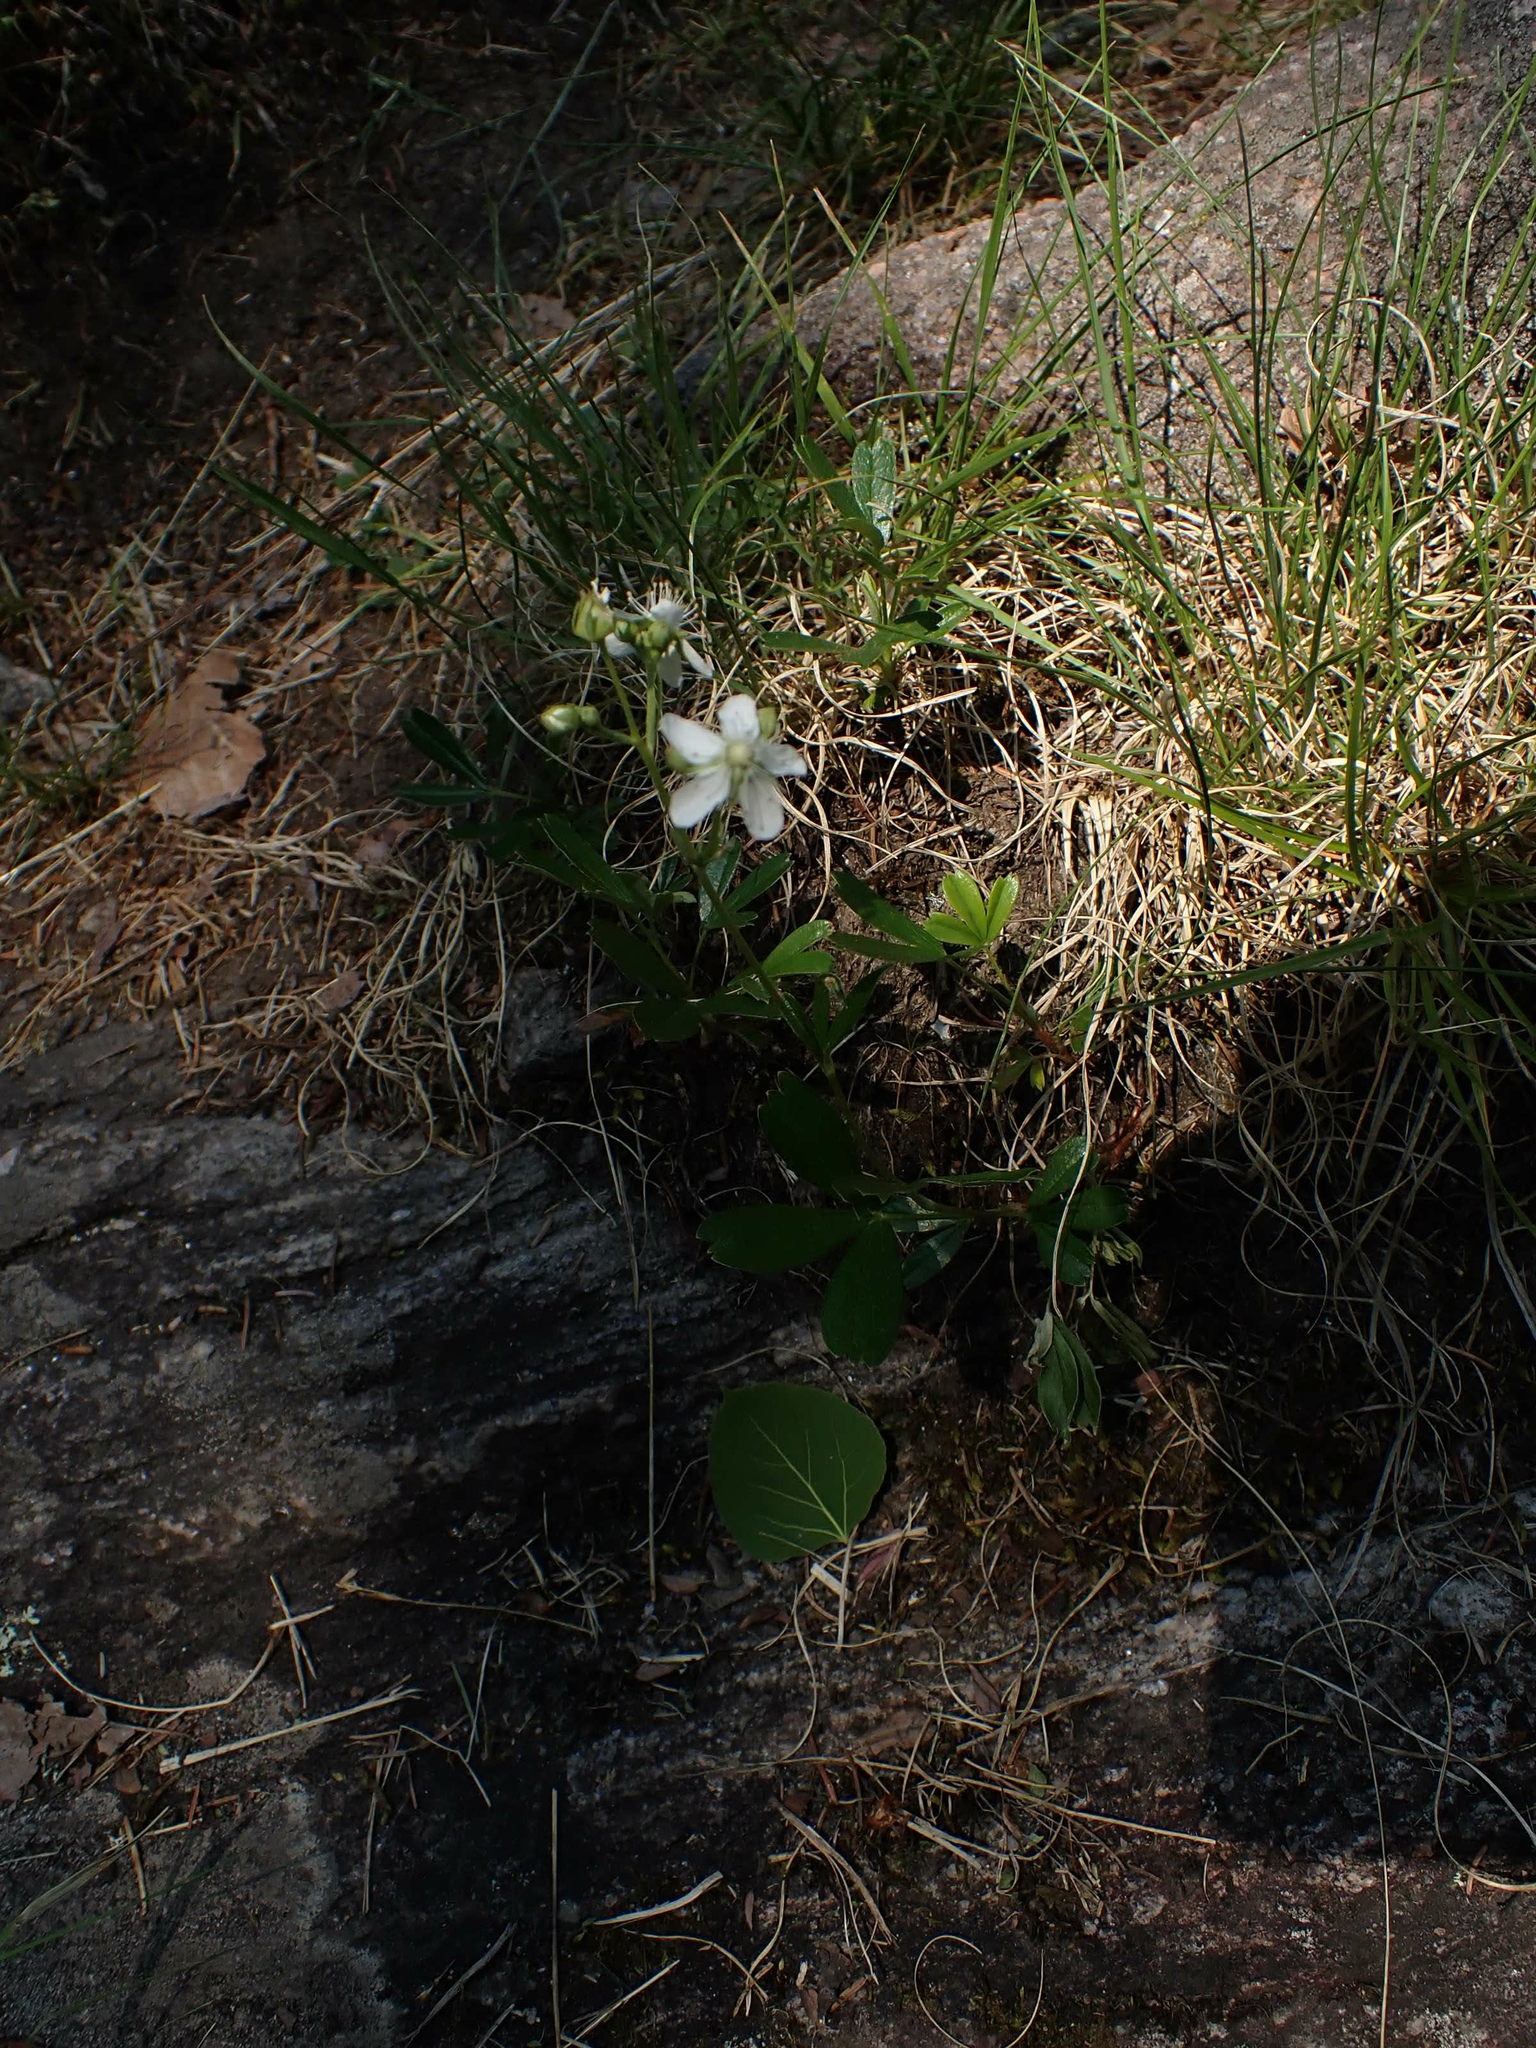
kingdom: Plantae
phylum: Tracheophyta
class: Magnoliopsida
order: Rosales
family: Rosaceae
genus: Sibbaldia
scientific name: Sibbaldia tridentata
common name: Three-toothed cinquefoil
